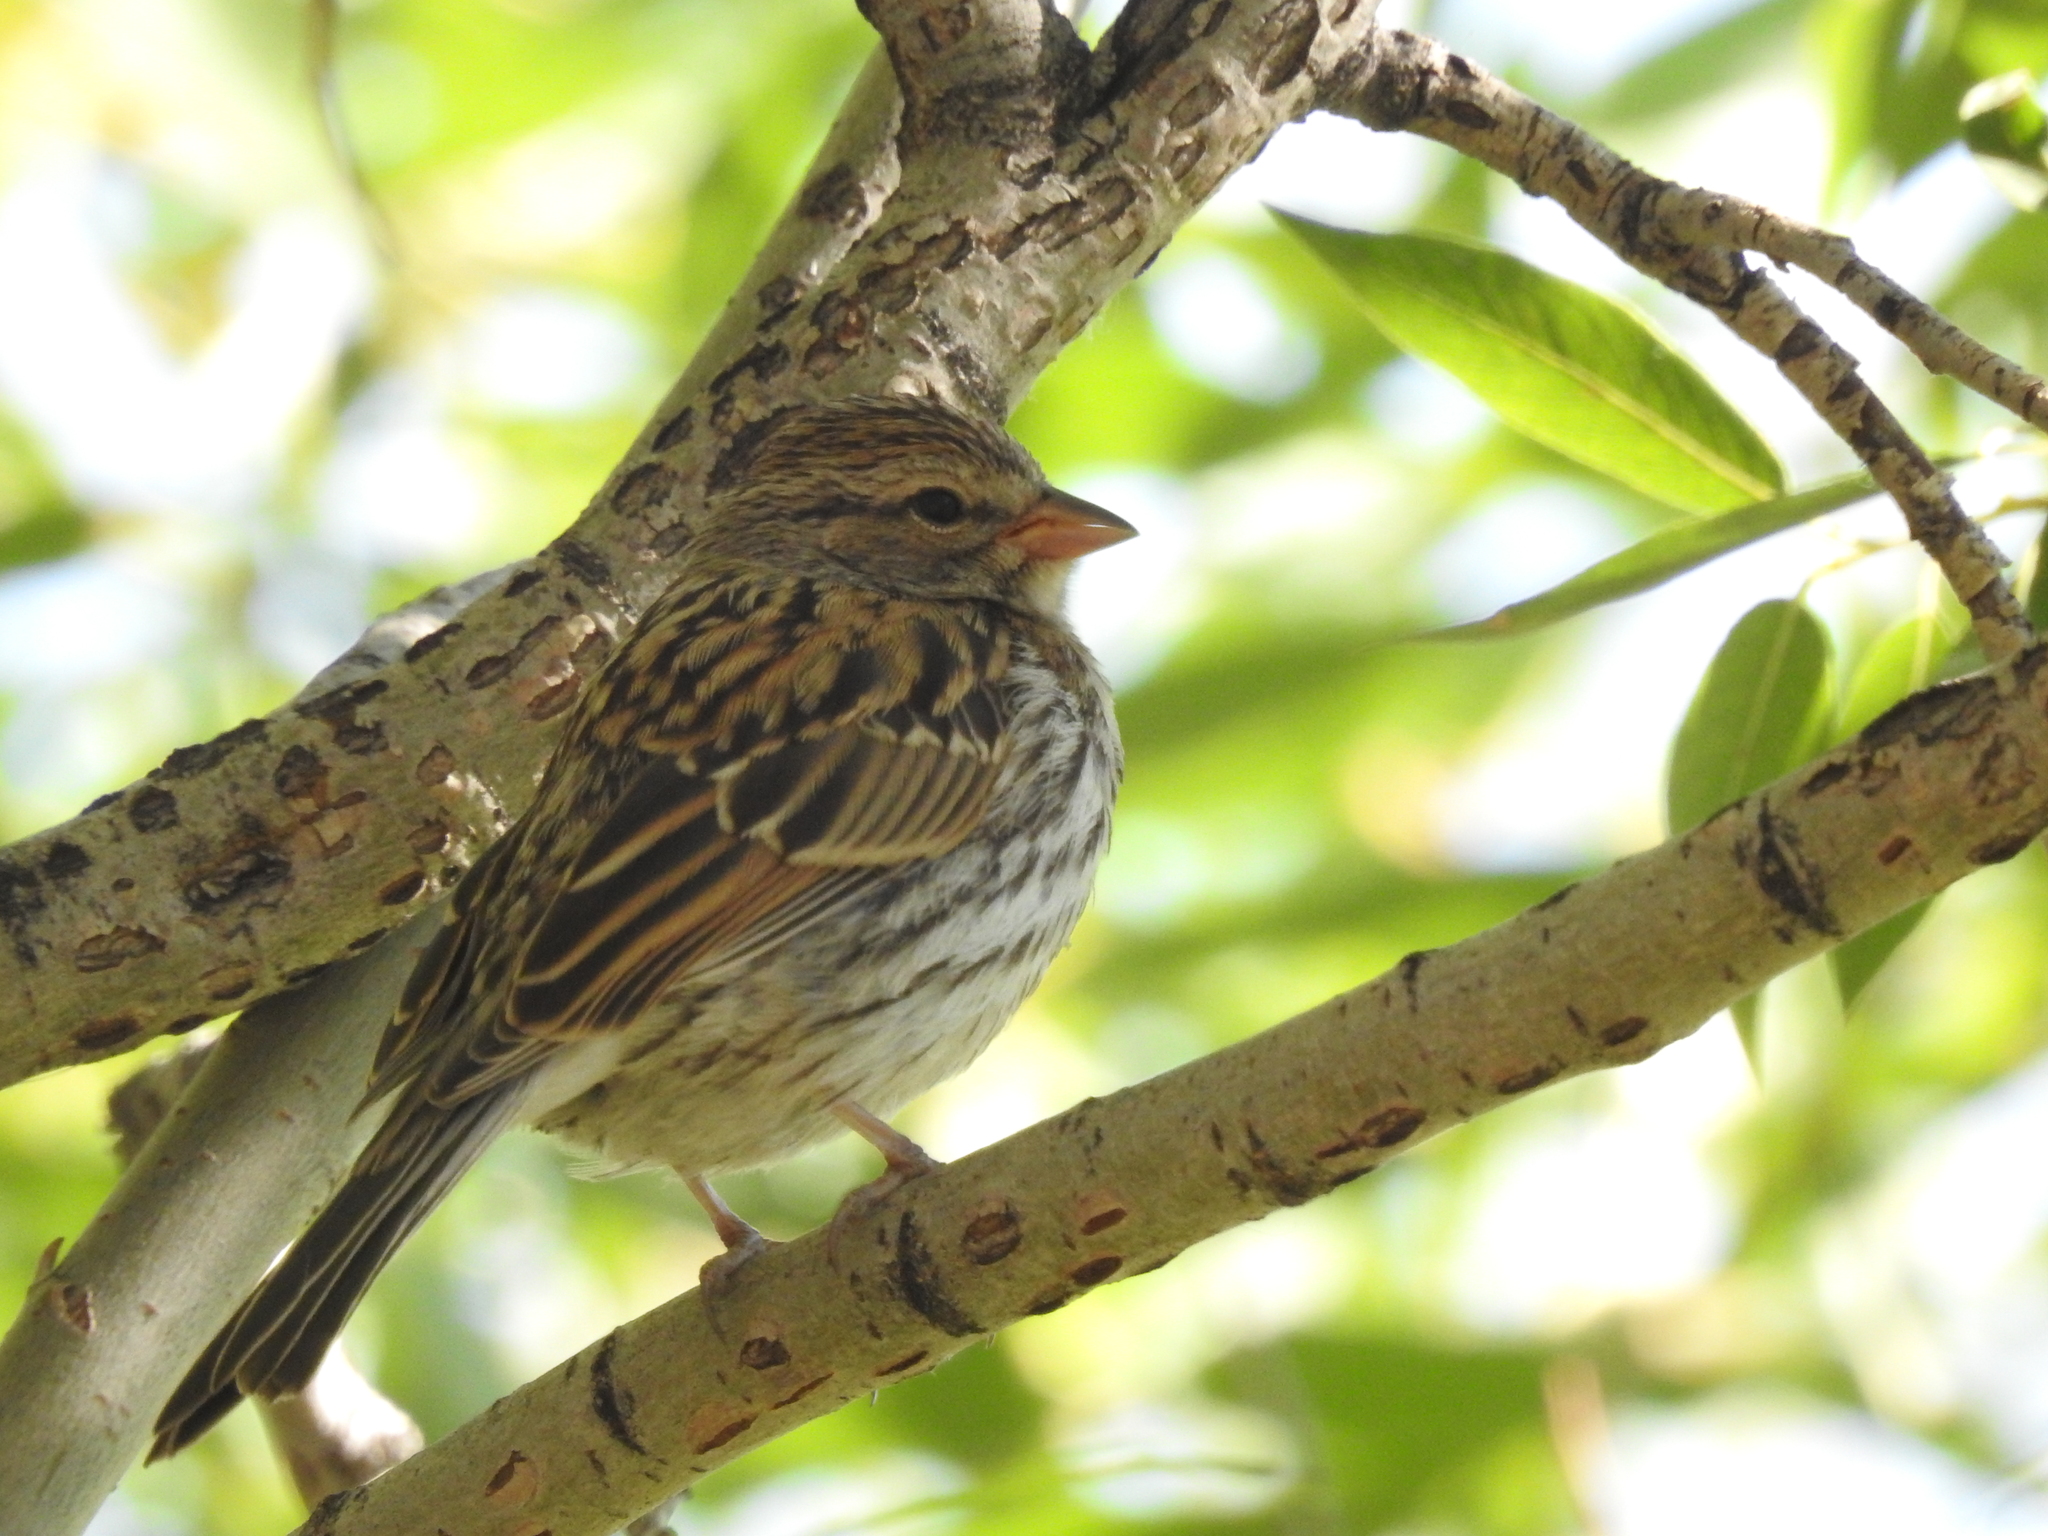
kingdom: Animalia
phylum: Chordata
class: Aves
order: Passeriformes
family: Passerellidae
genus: Spizella
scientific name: Spizella passerina
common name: Chipping sparrow
